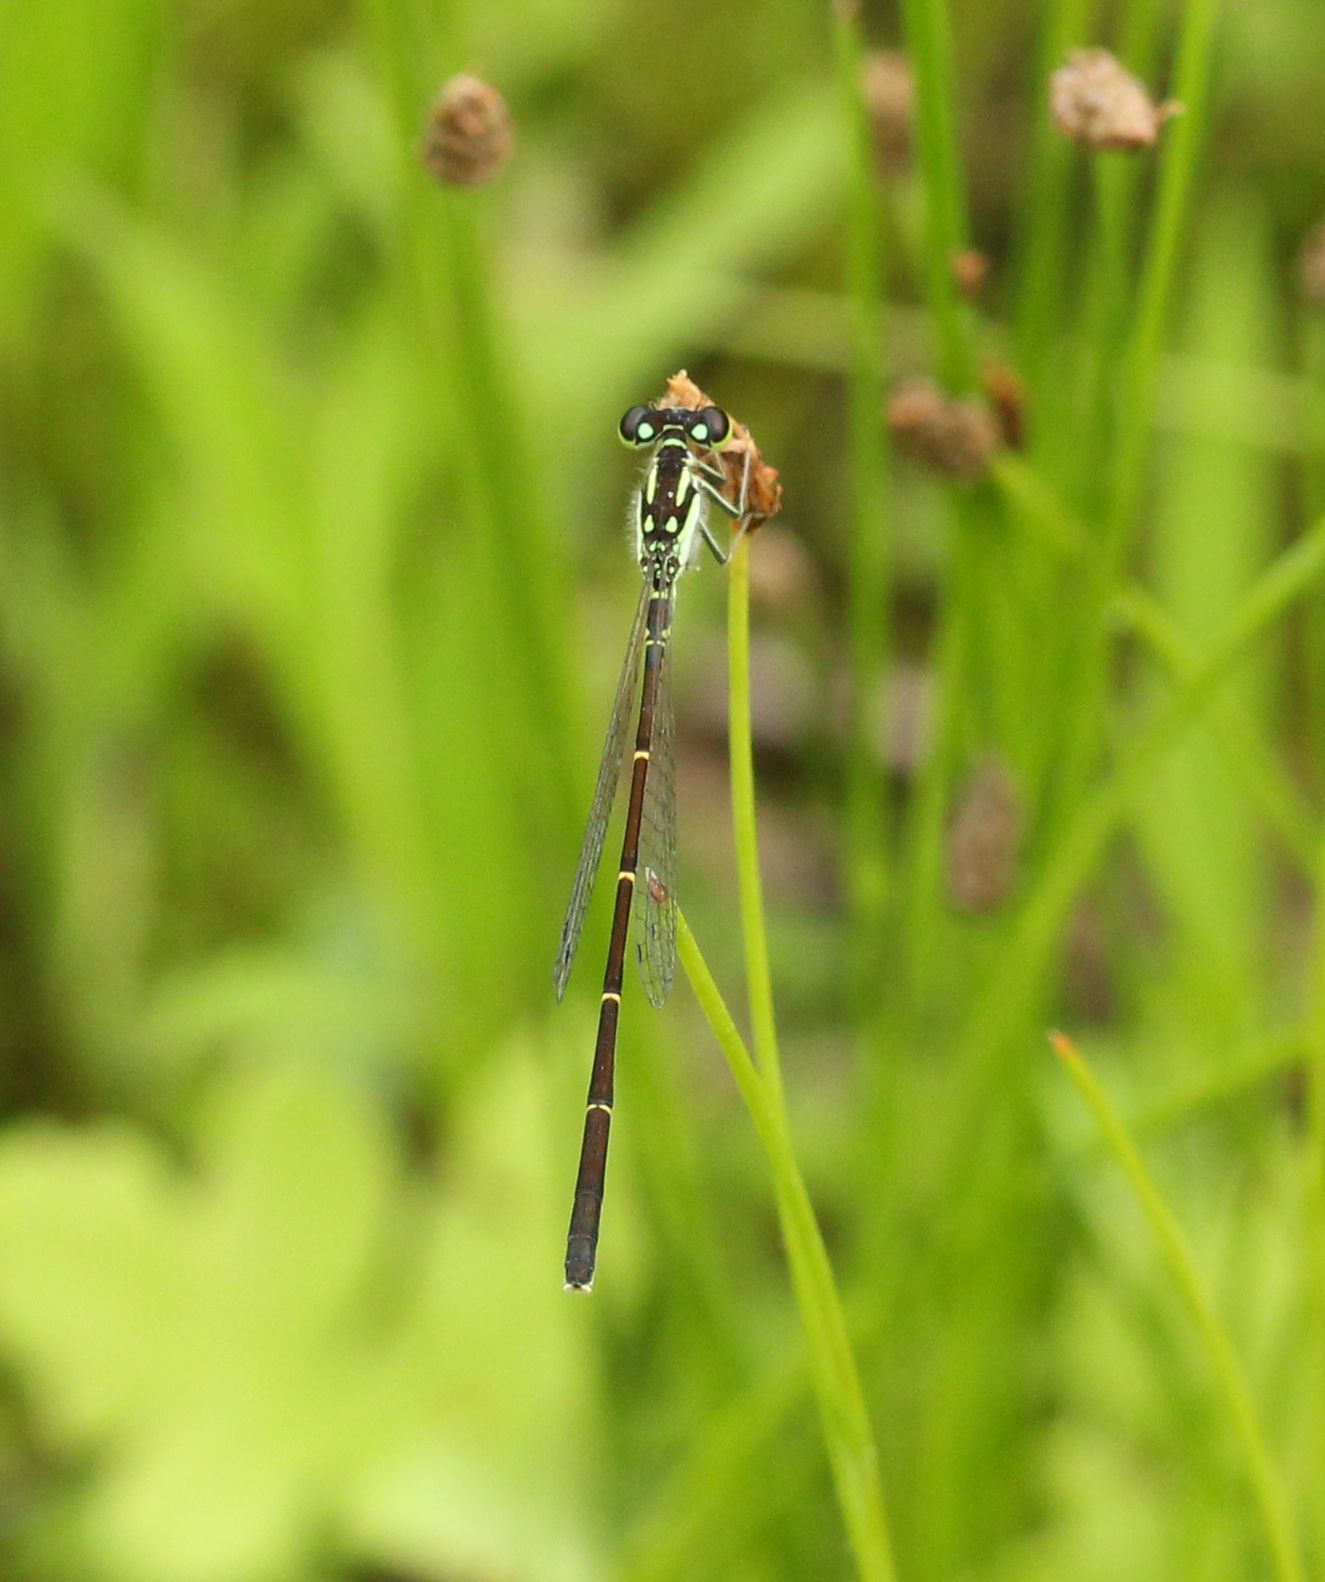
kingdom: Animalia
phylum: Arthropoda
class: Insecta
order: Odonata
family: Coenagrionidae
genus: Ischnura
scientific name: Ischnura posita
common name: Fragile forktail
